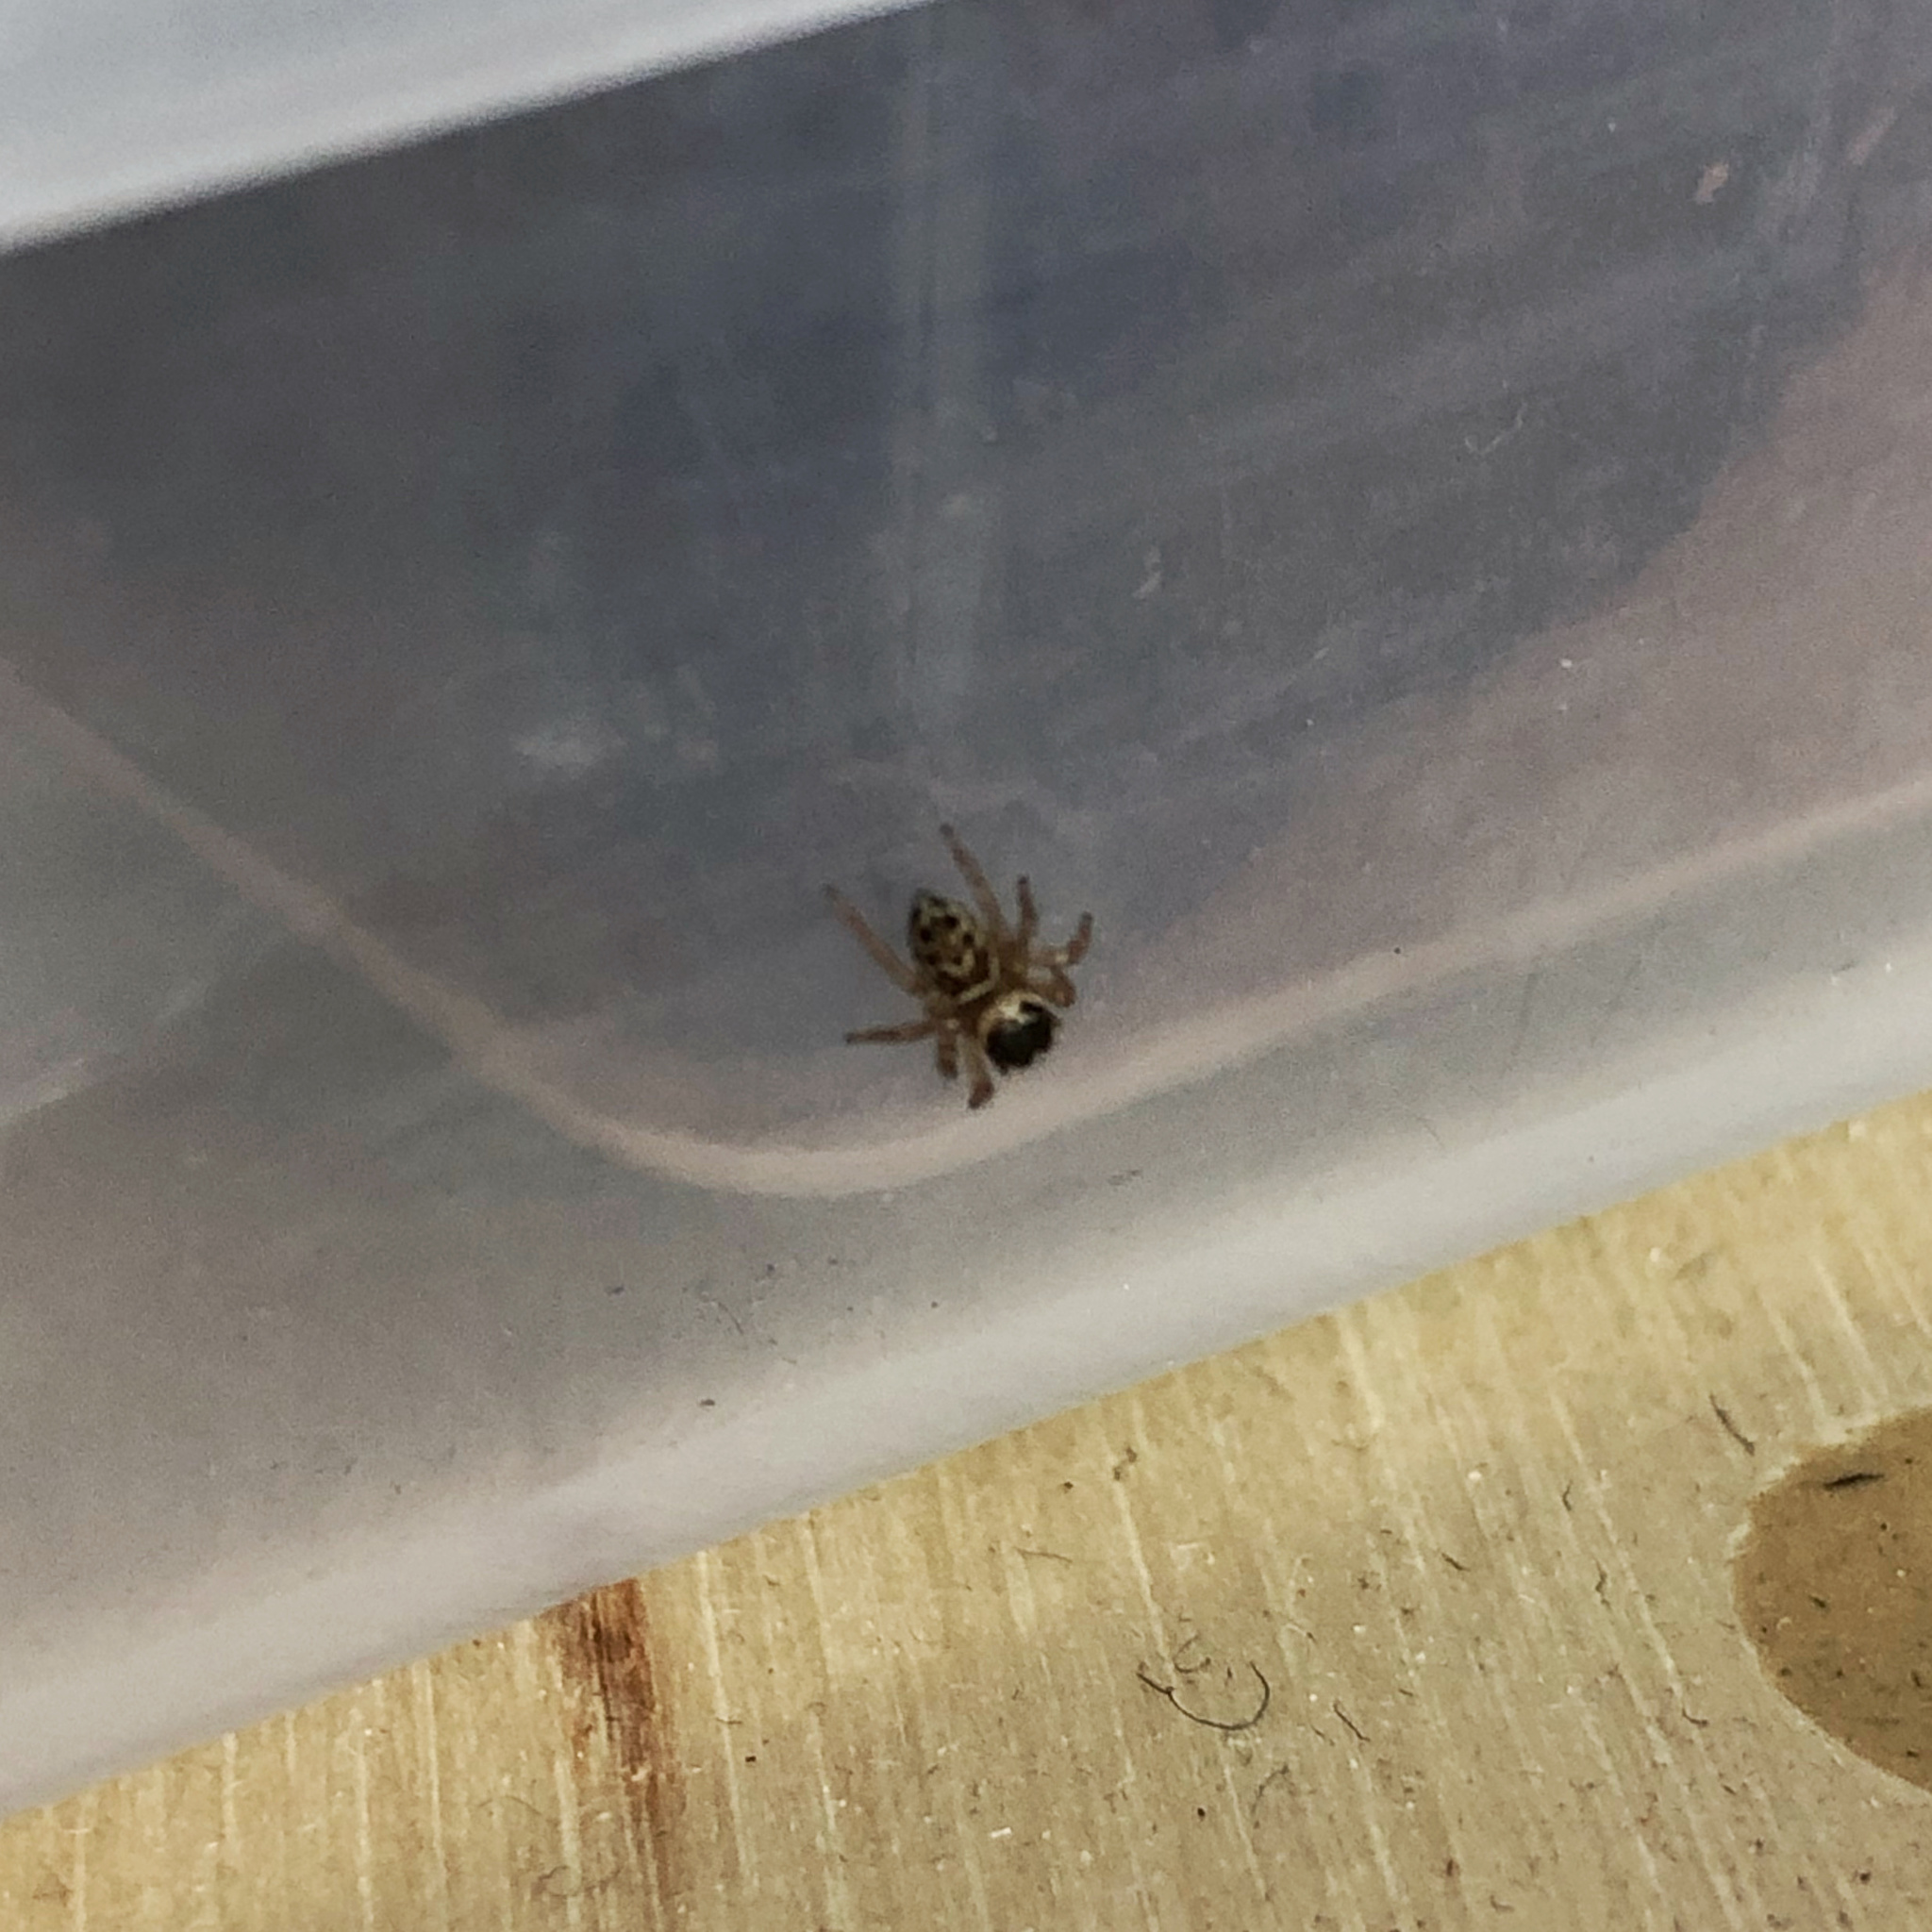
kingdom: Animalia
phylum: Arthropoda
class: Arachnida
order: Araneae
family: Salticidae
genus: Maratus
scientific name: Maratus griseus
